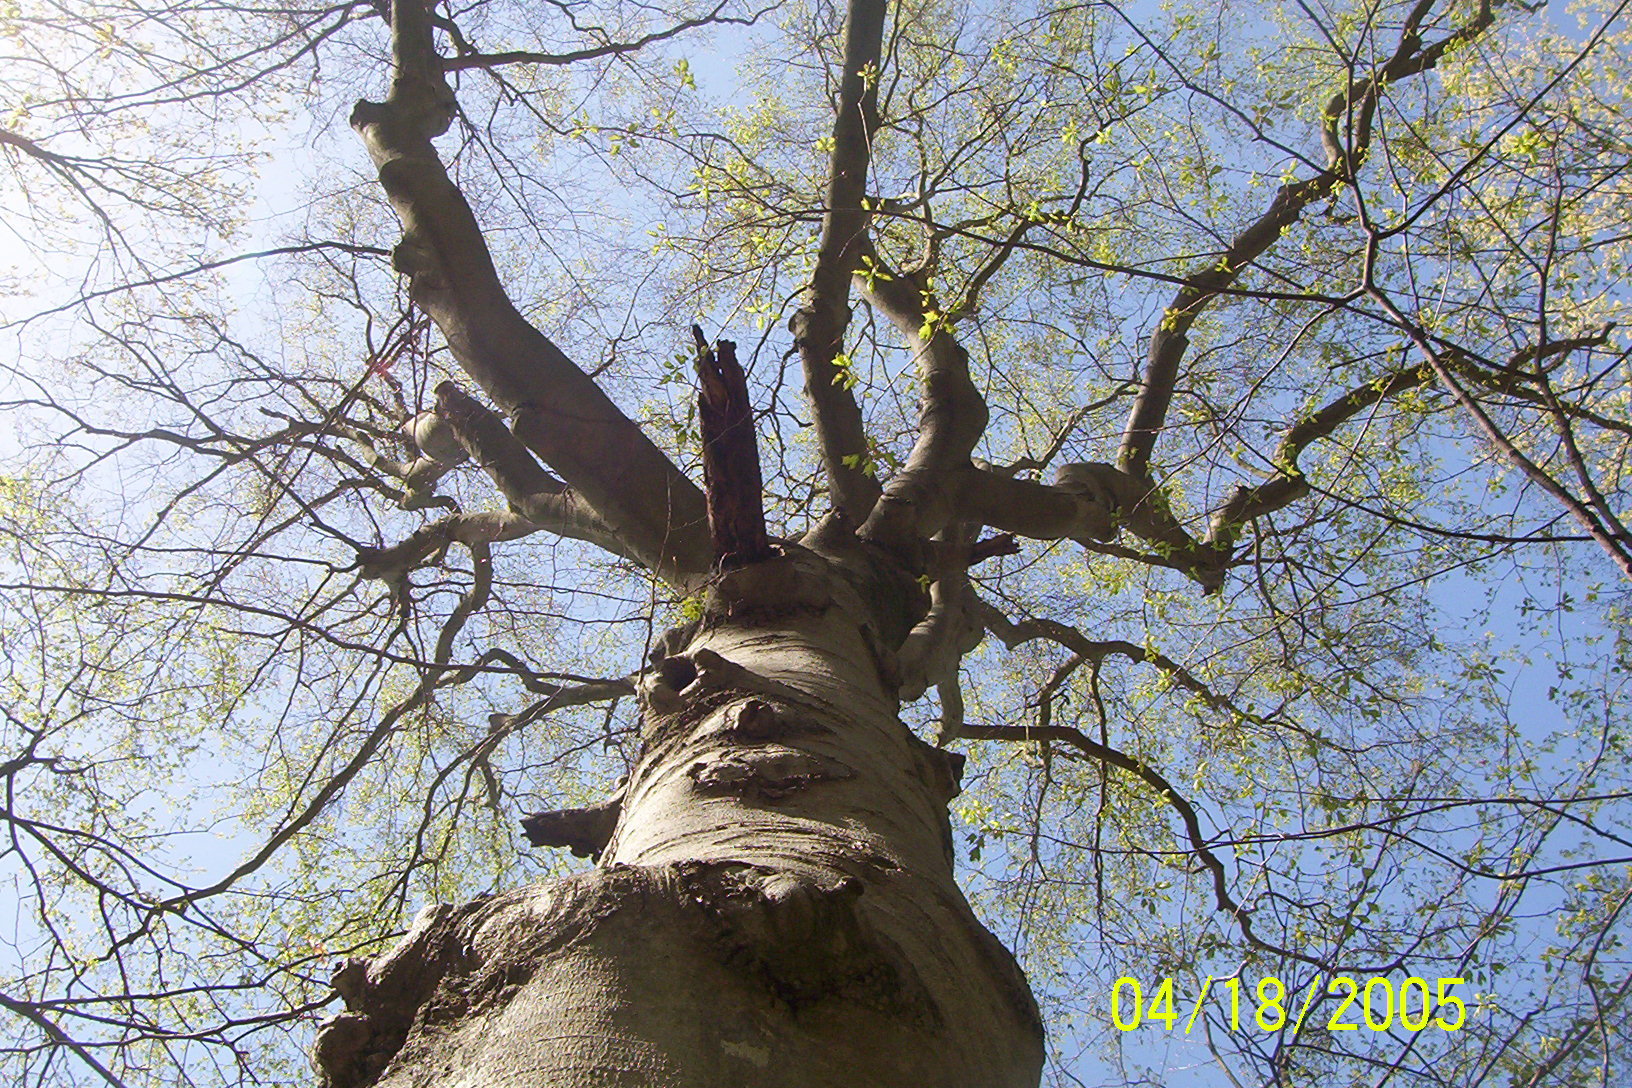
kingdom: Plantae
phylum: Tracheophyta
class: Magnoliopsida
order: Fagales
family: Fagaceae
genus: Fagus
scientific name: Fagus grandifolia
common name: American beech
